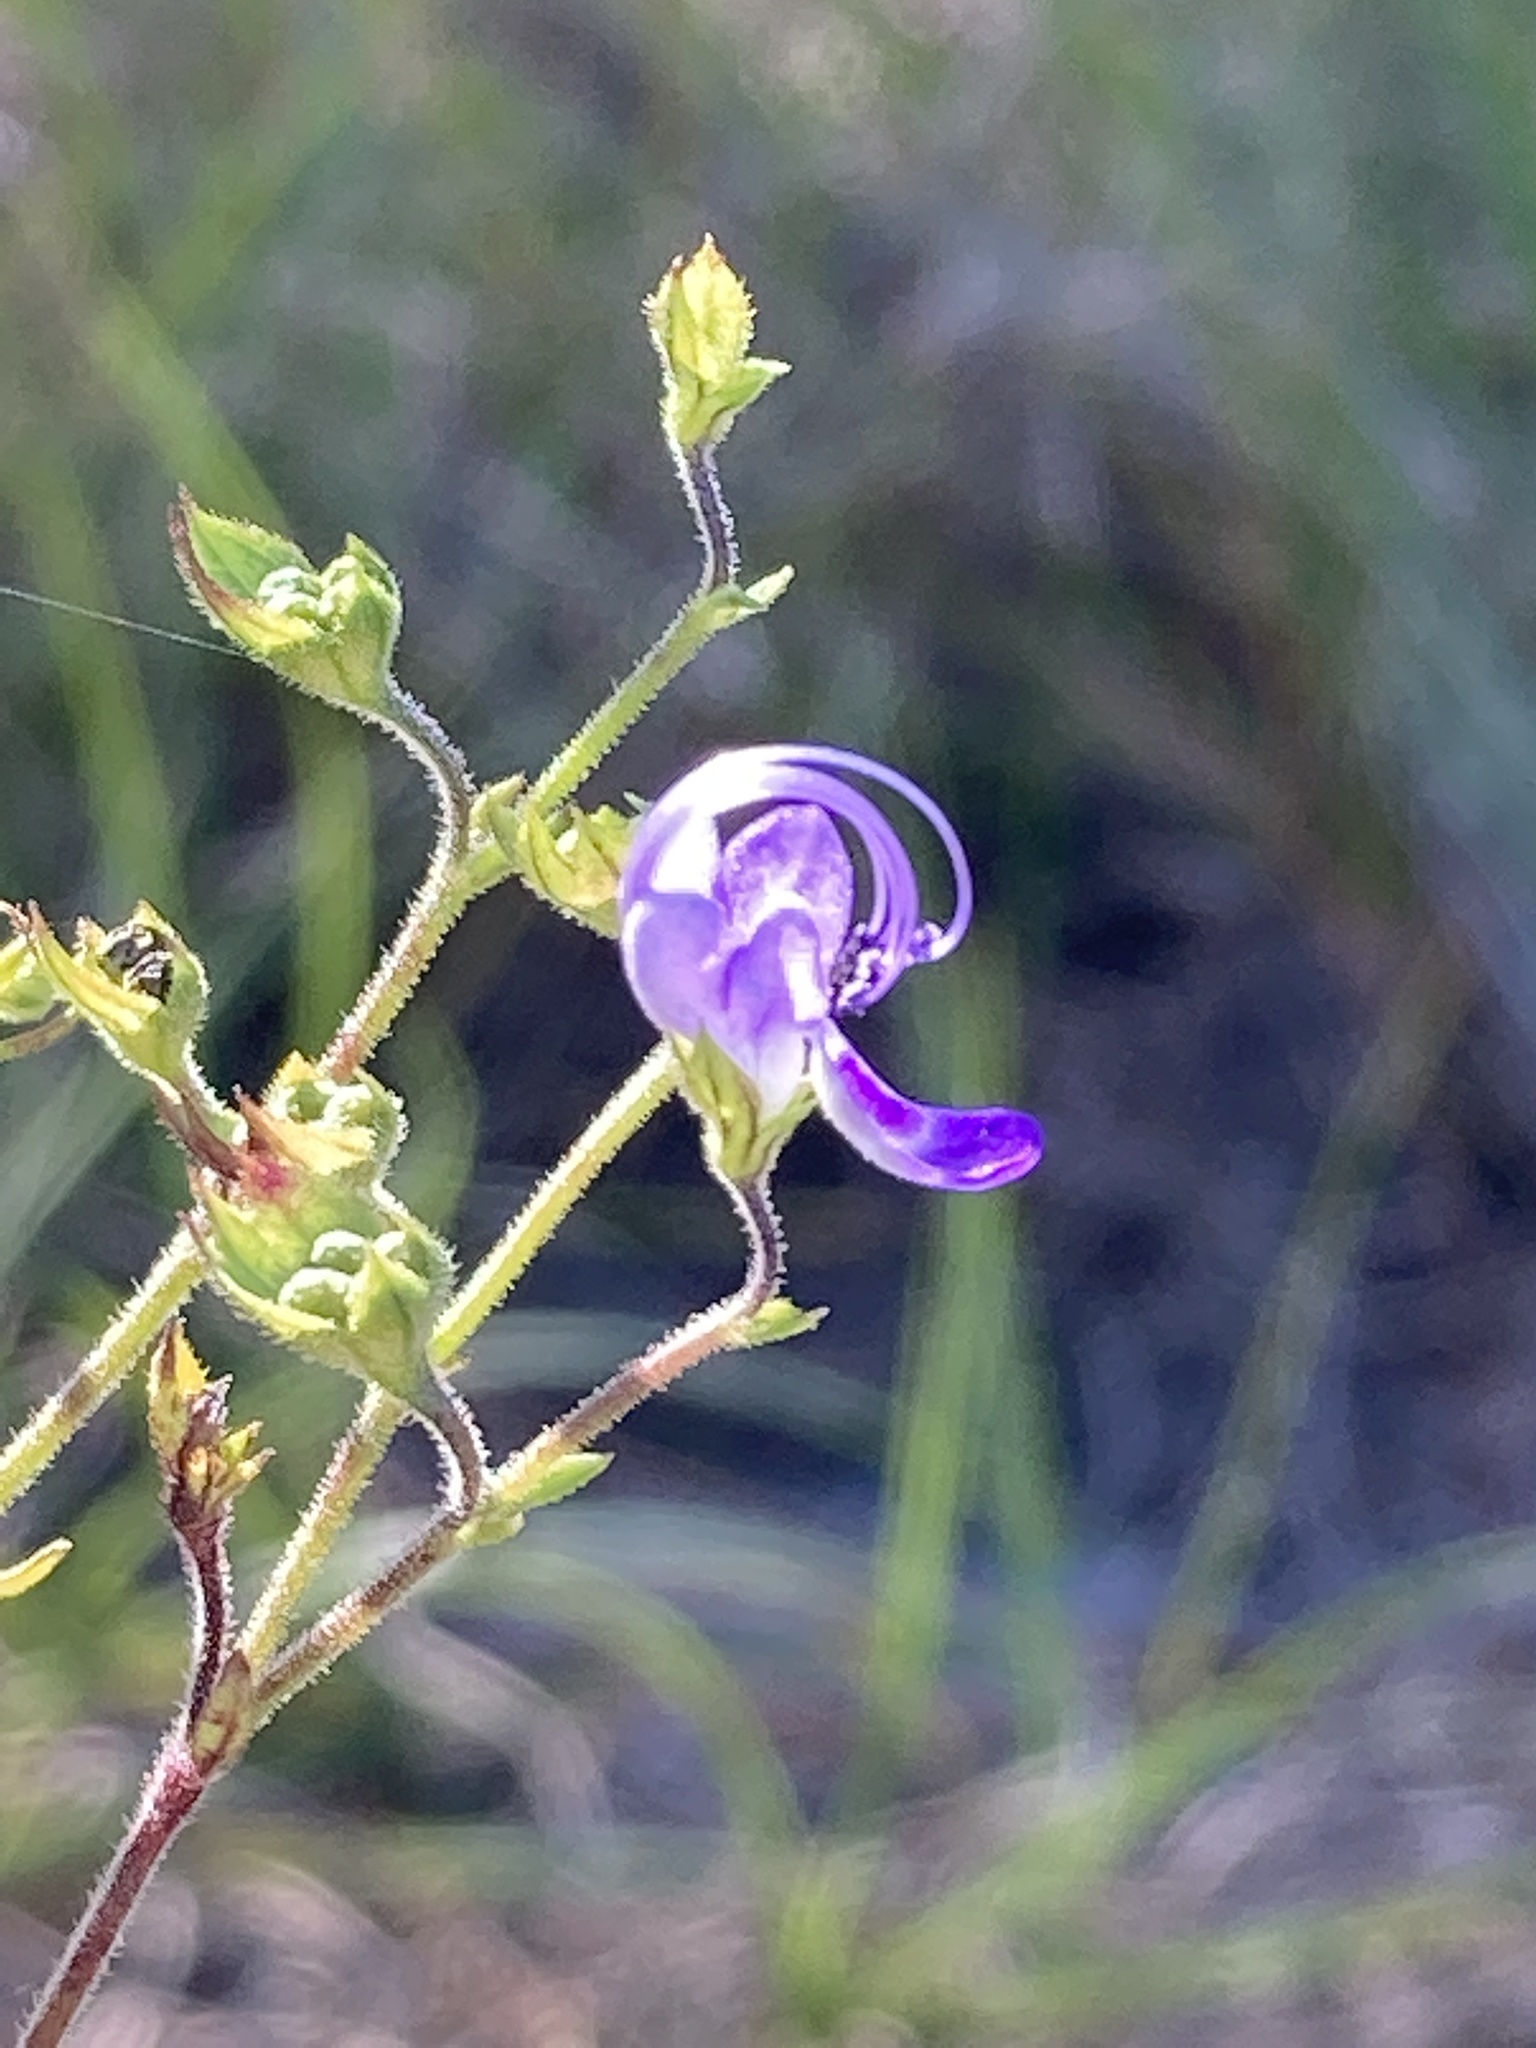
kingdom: Plantae
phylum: Tracheophyta
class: Magnoliopsida
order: Lamiales
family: Lamiaceae
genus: Trichostema
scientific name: Trichostema dichotomum
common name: Bastard pennyroyal
